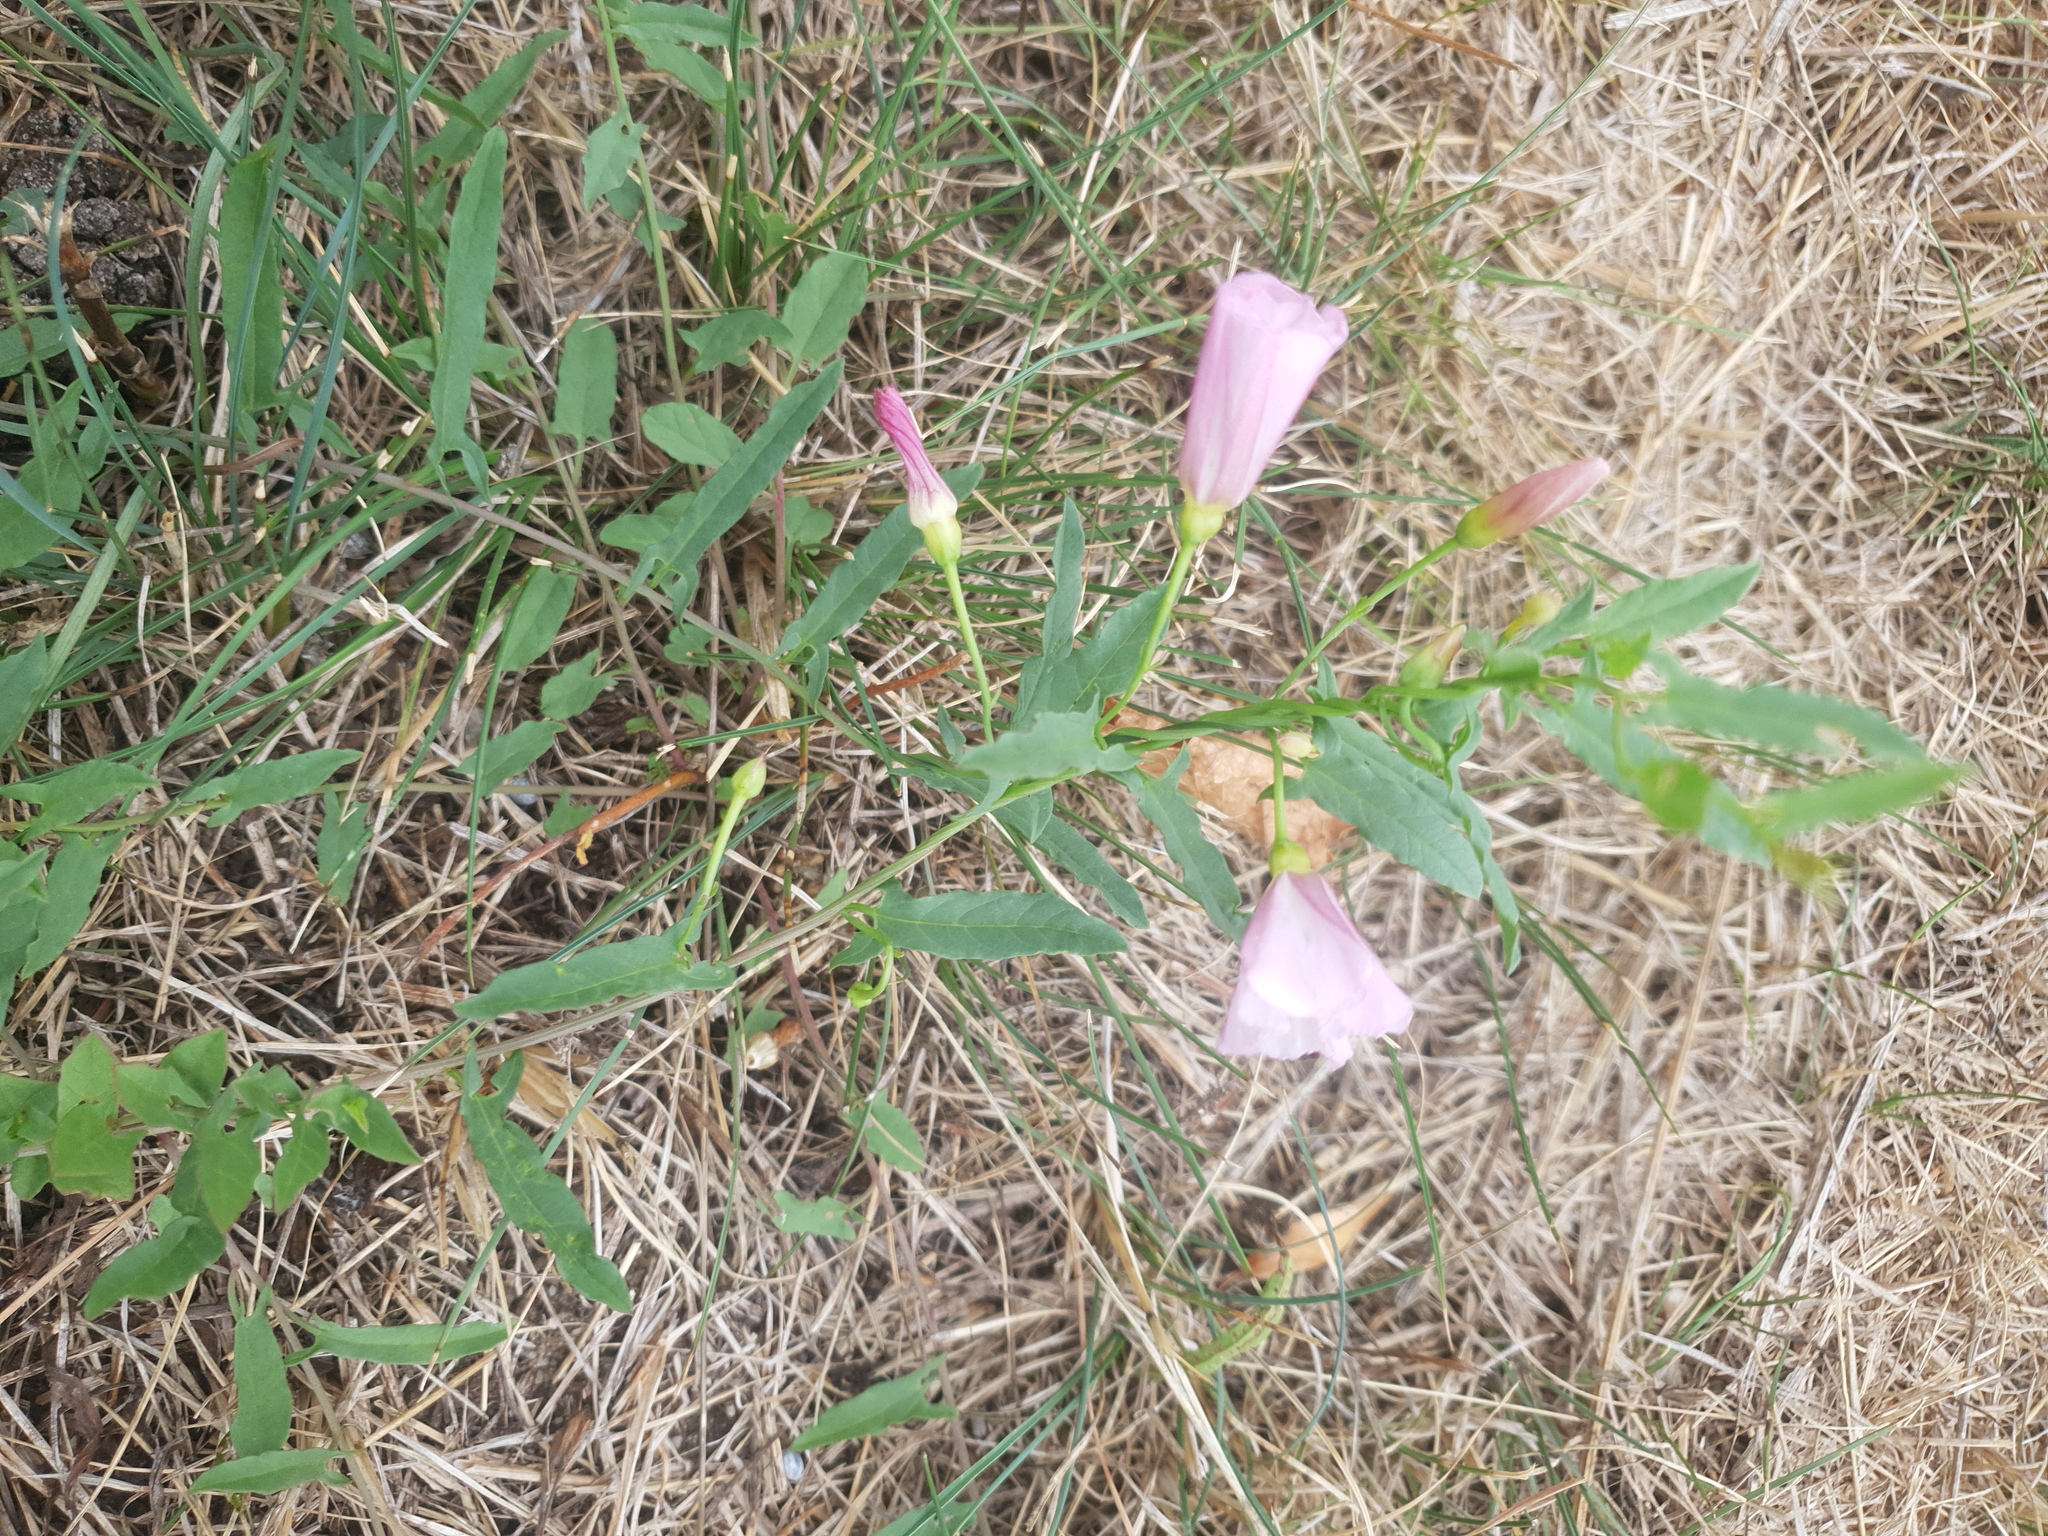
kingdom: Plantae
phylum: Tracheophyta
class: Magnoliopsida
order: Solanales
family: Convolvulaceae
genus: Convolvulus
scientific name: Convolvulus arvensis
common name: Field bindweed
